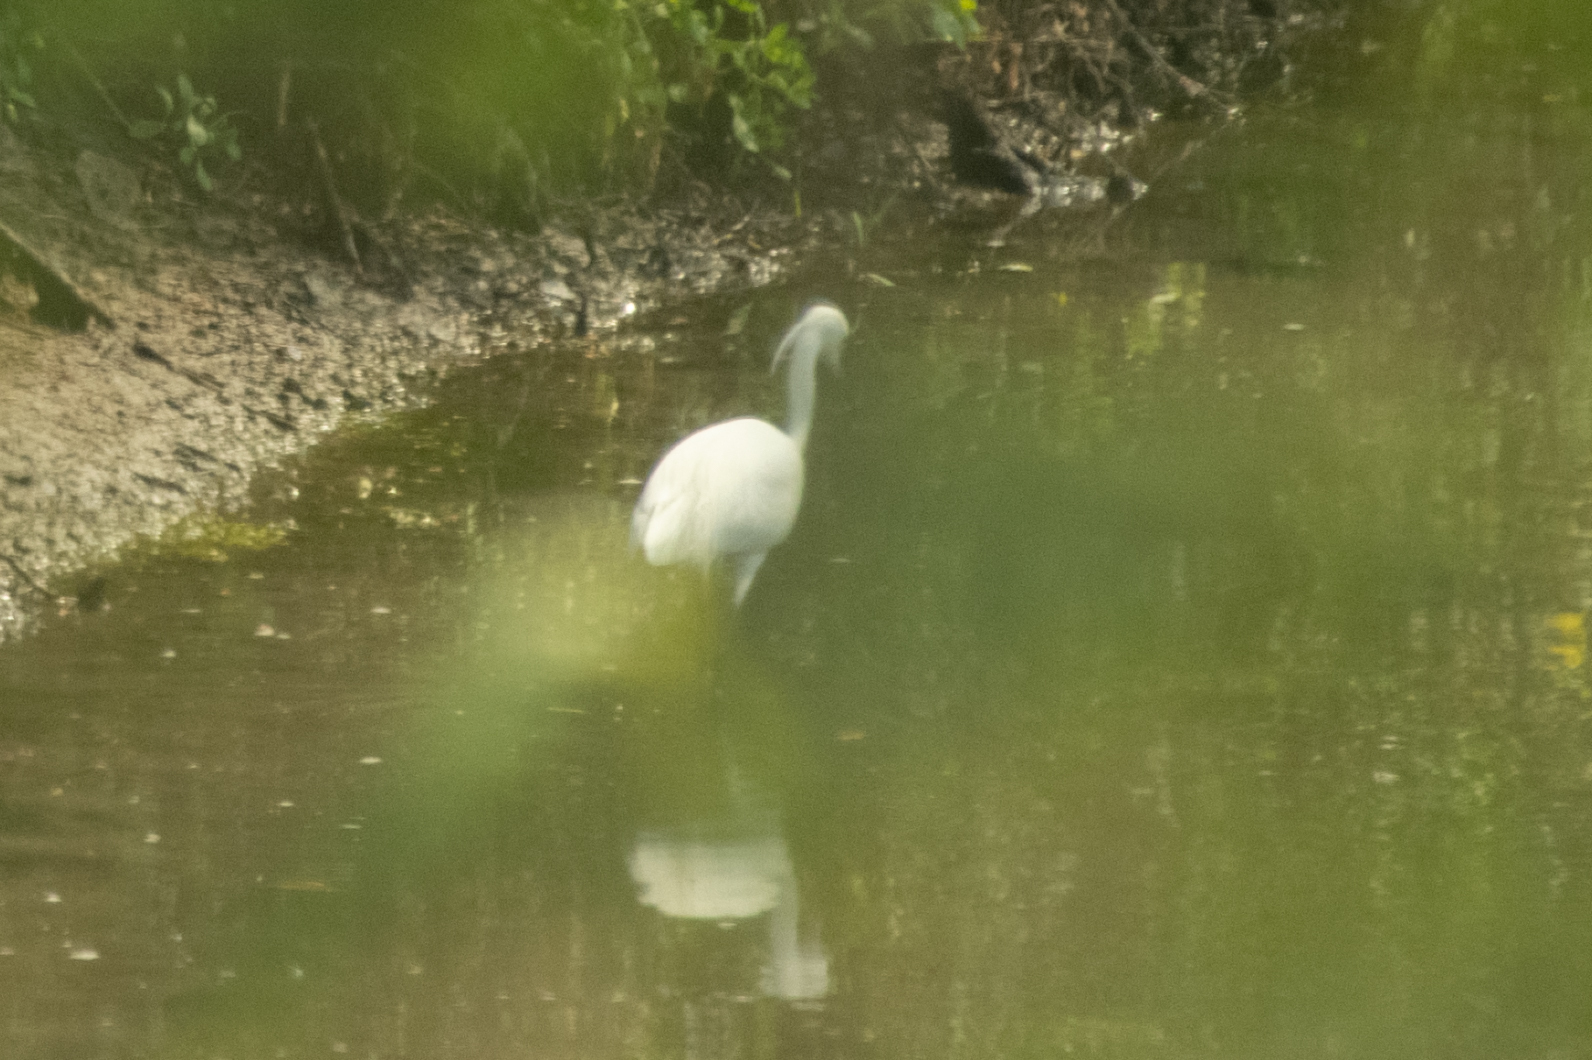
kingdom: Animalia
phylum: Chordata
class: Aves
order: Pelecaniformes
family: Ardeidae
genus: Egretta
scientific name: Egretta garzetta
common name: Little egret
